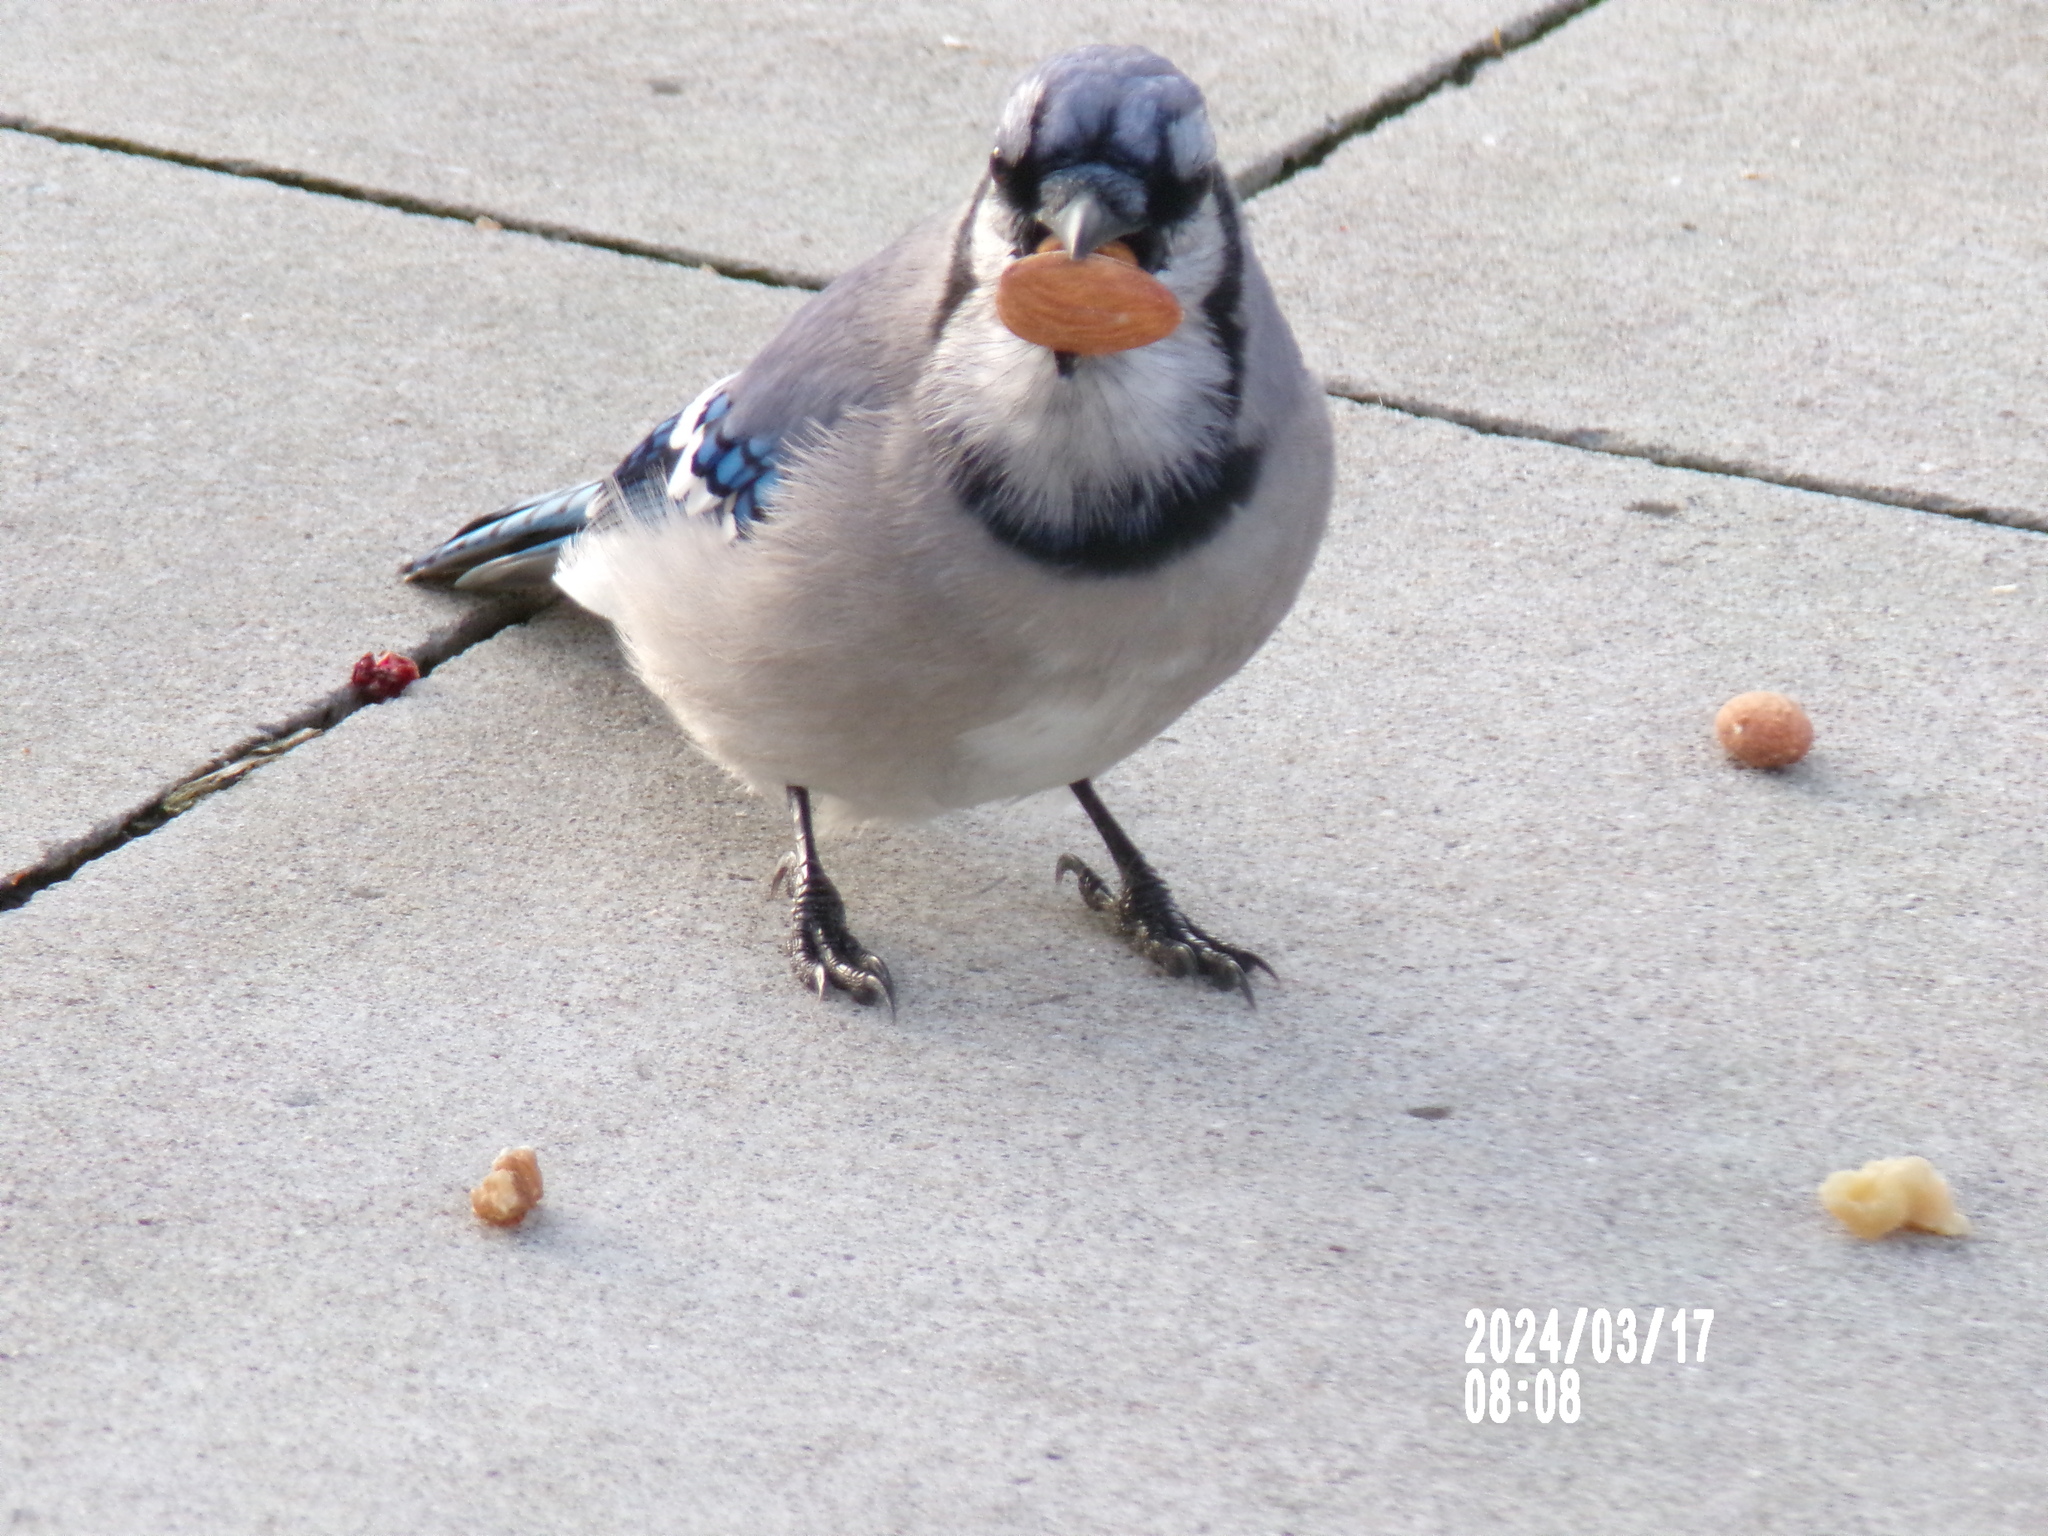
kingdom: Animalia
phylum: Chordata
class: Aves
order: Passeriformes
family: Corvidae
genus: Cyanocitta
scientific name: Cyanocitta cristata
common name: Blue jay
